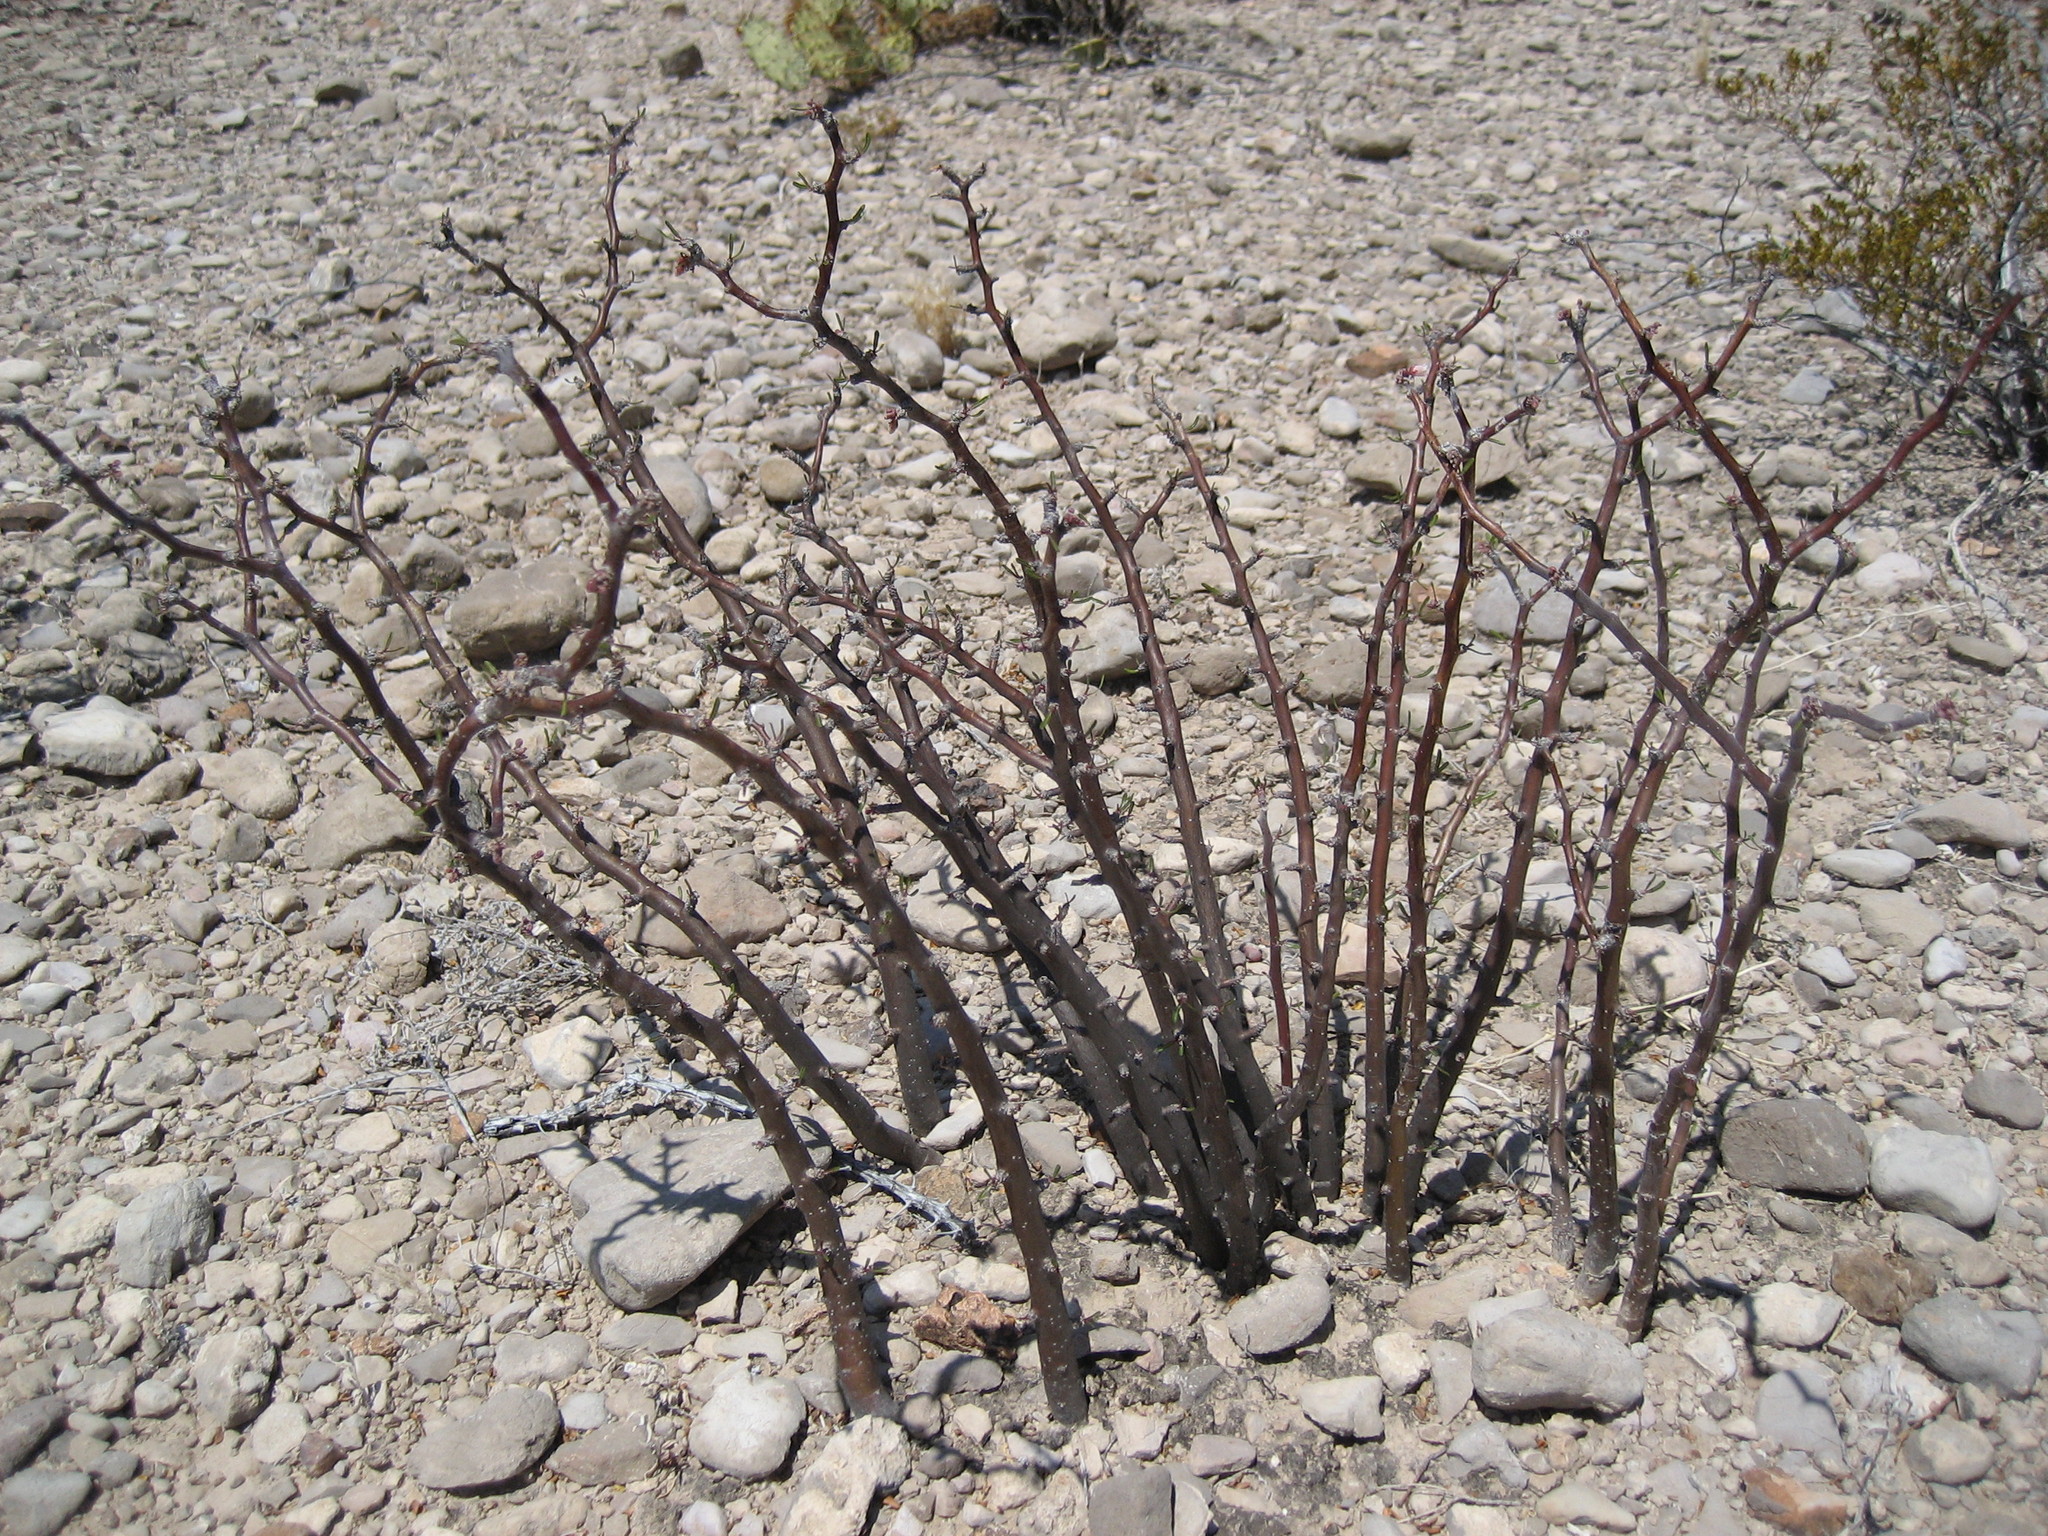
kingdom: Plantae
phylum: Tracheophyta
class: Magnoliopsida
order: Malpighiales
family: Euphorbiaceae
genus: Jatropha
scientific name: Jatropha dioica
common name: Leatherstem
